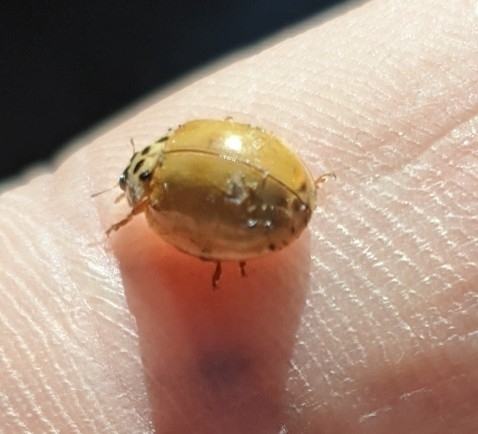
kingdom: Animalia
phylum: Arthropoda
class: Insecta
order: Coleoptera
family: Coccinellidae
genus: Harmonia
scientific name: Harmonia axyridis
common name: Harlequin ladybird
